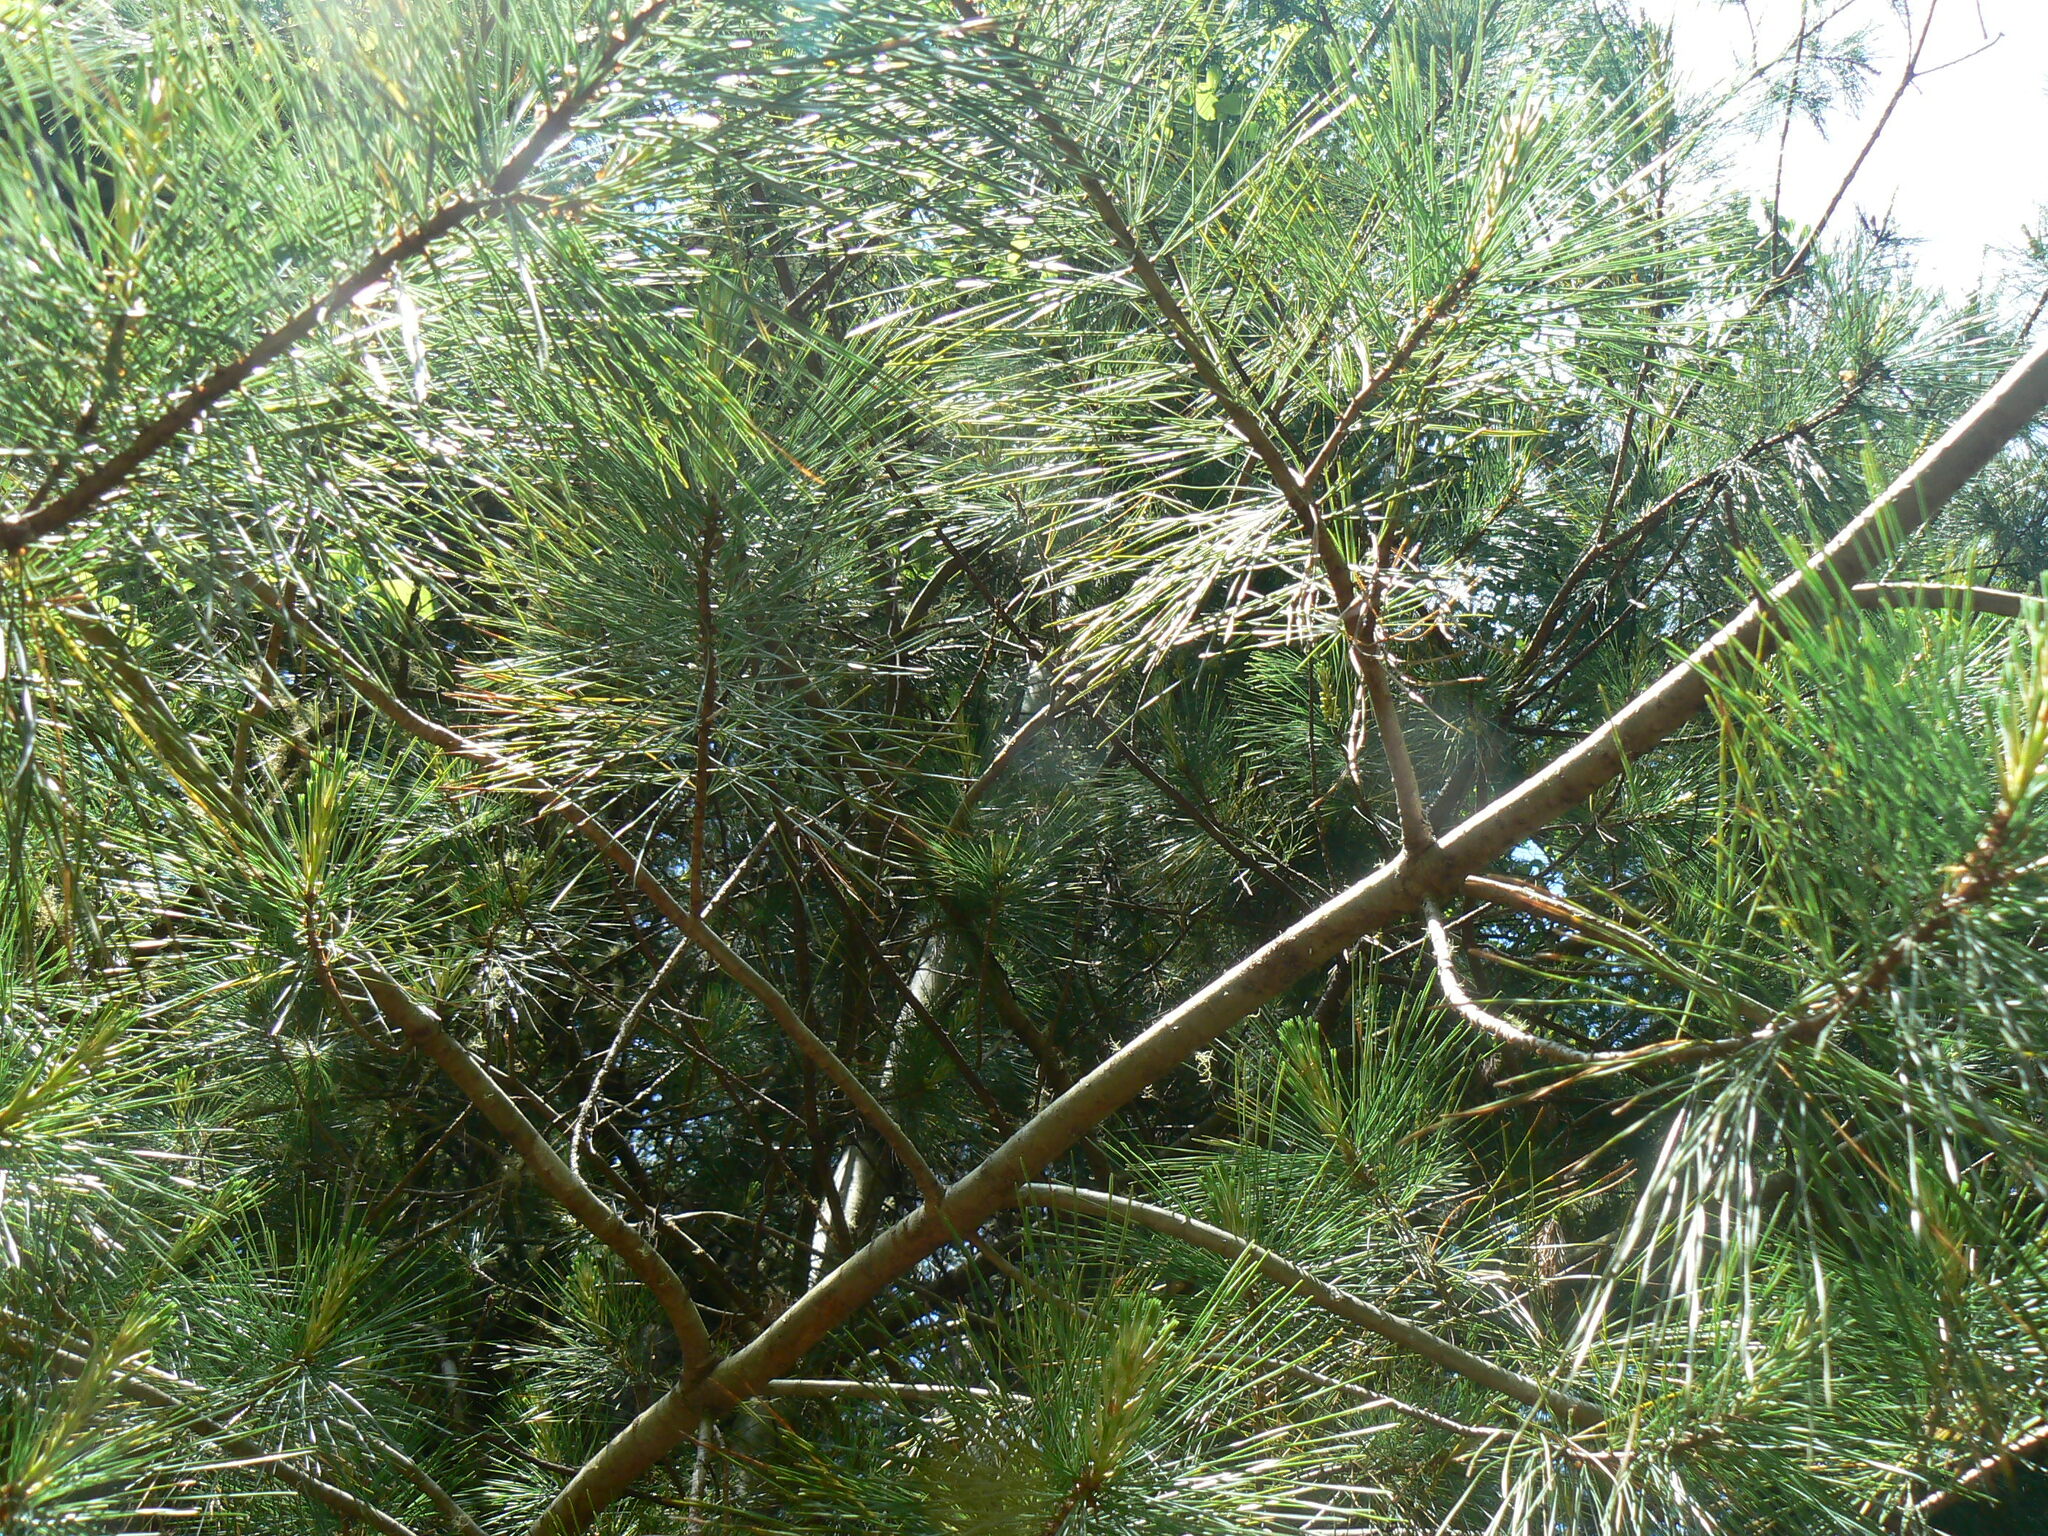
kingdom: Plantae
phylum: Tracheophyta
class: Pinopsida
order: Pinales
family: Pinaceae
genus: Pinus
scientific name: Pinus monticola
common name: Western white pine
